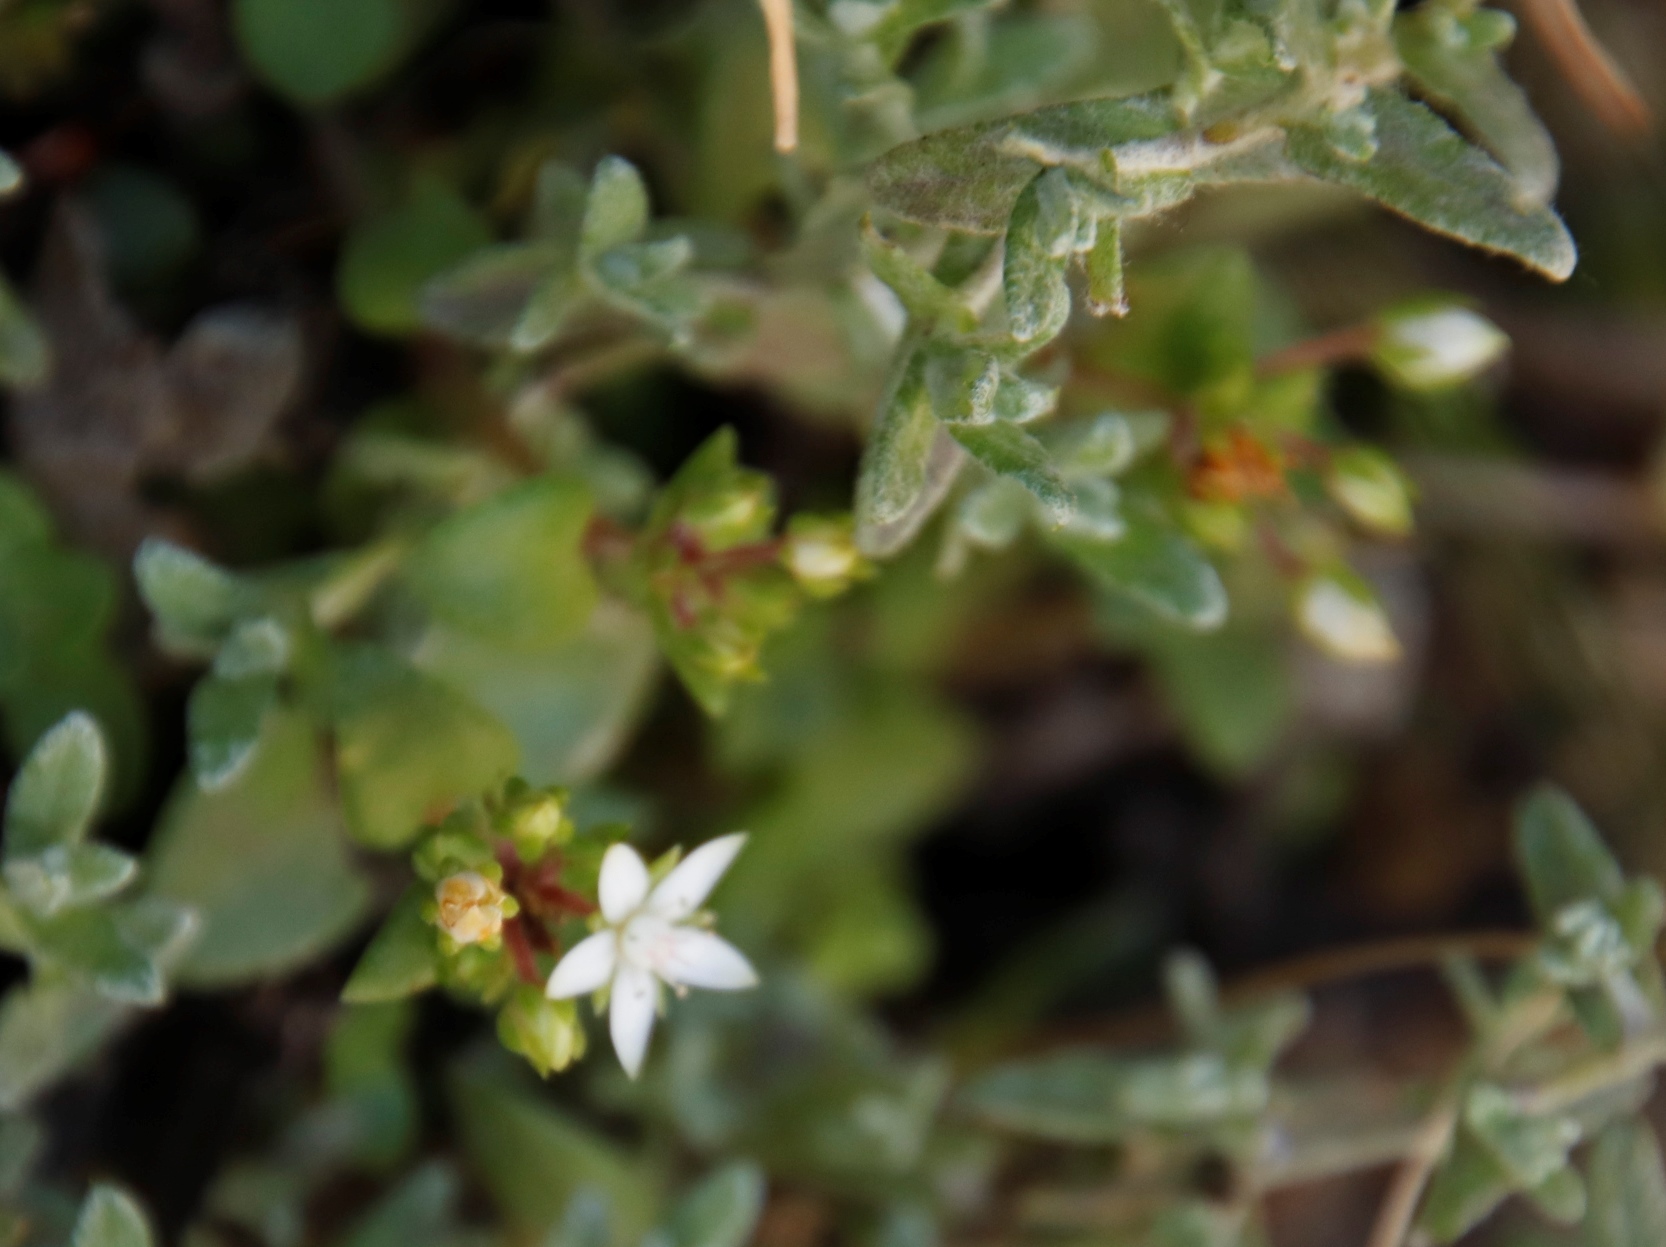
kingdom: Plantae
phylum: Tracheophyta
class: Magnoliopsida
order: Saxifragales
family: Crassulaceae
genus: Crassula
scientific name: Crassula pellucida
